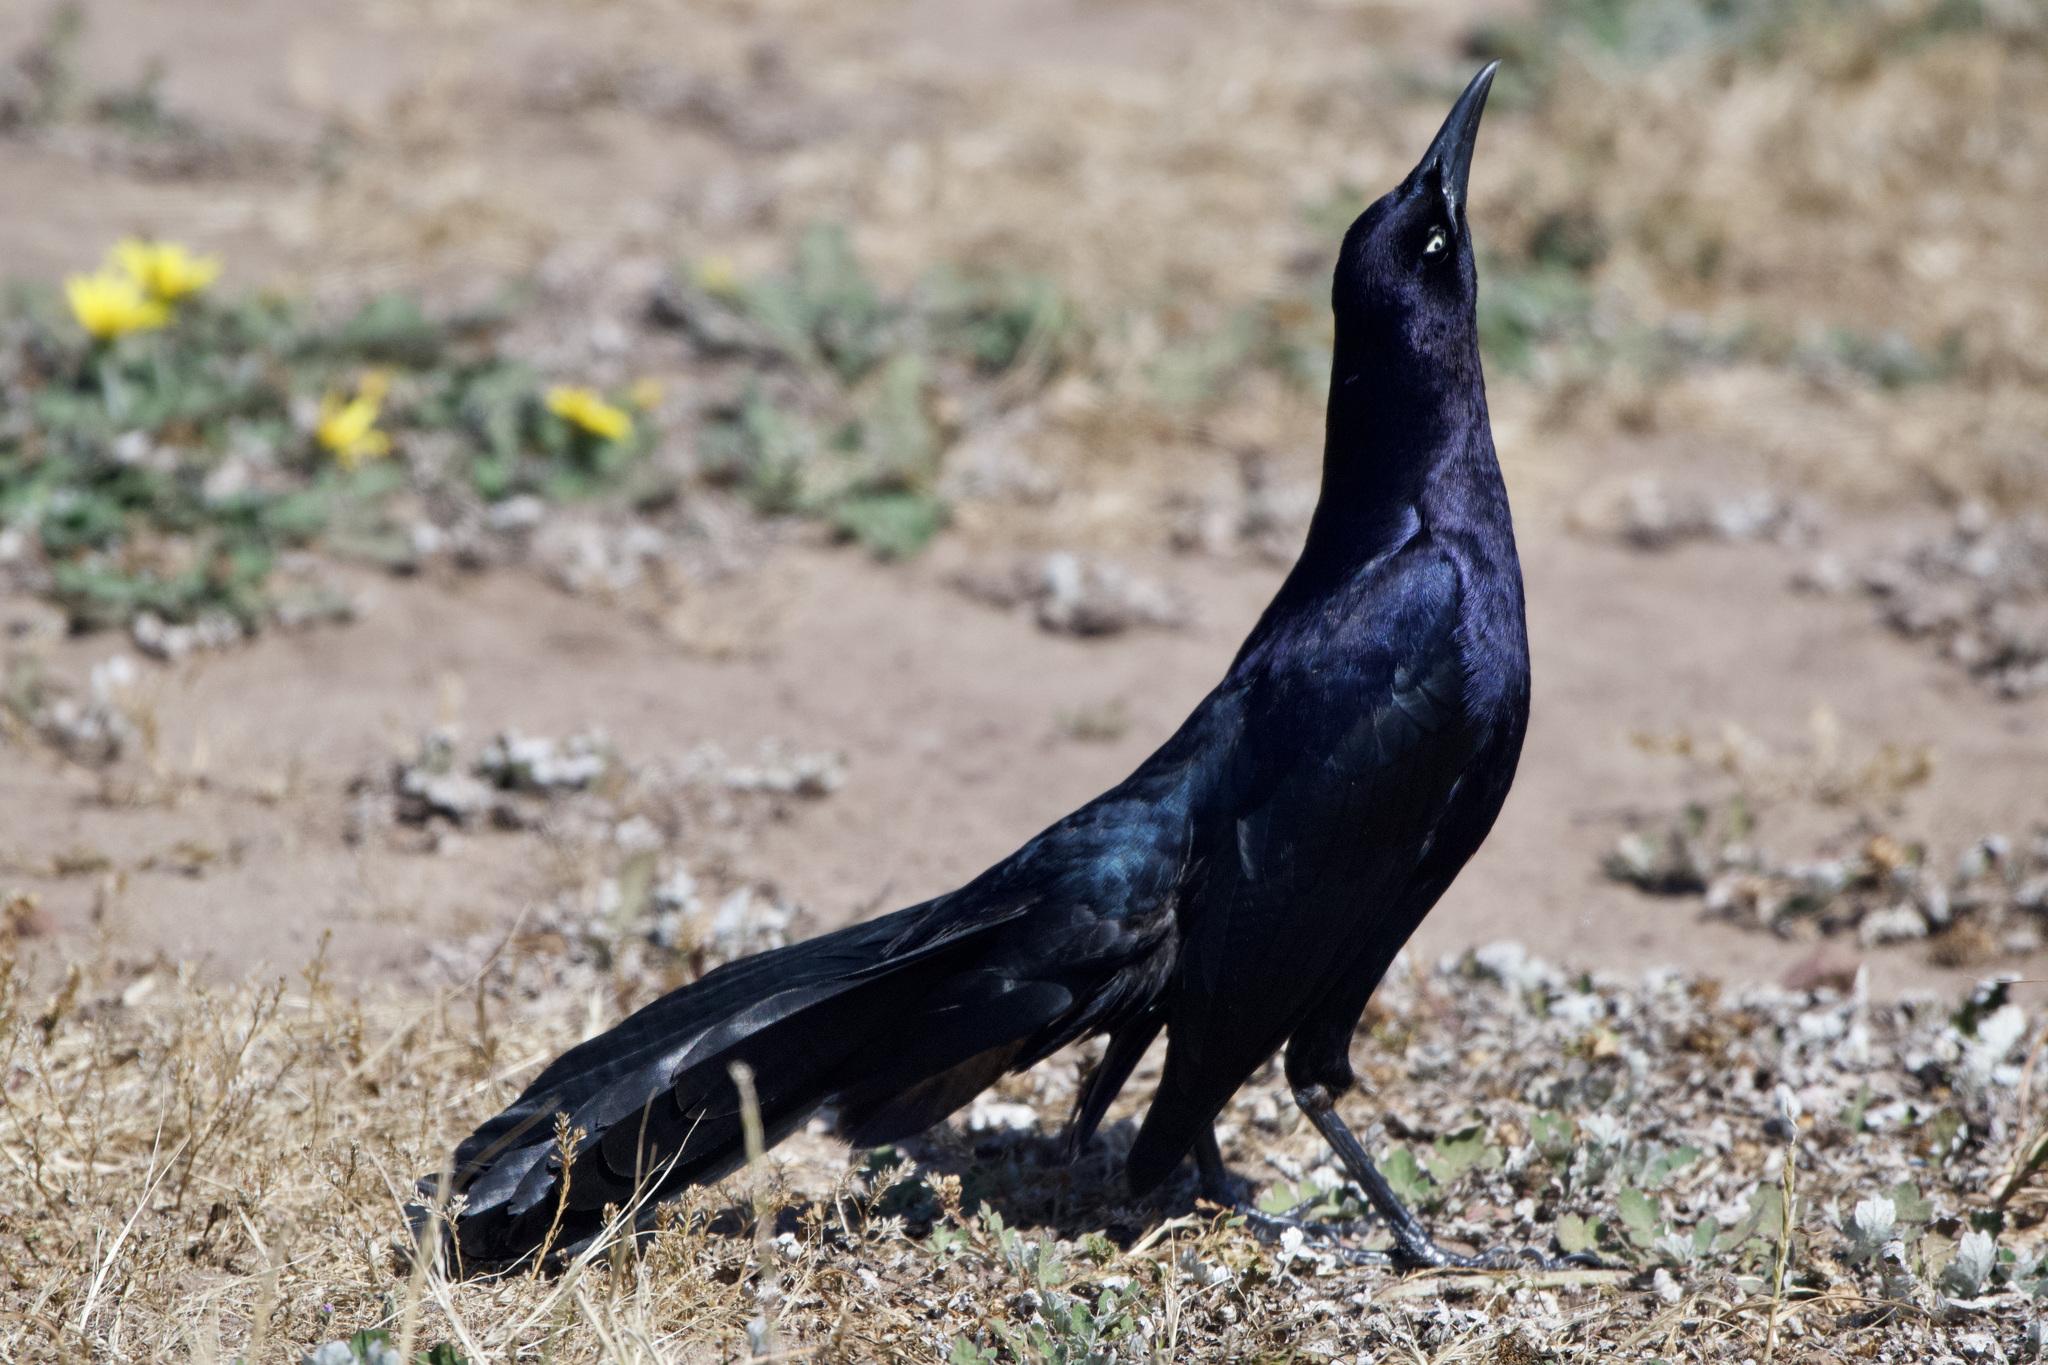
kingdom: Animalia
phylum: Chordata
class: Aves
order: Passeriformes
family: Icteridae
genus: Quiscalus
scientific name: Quiscalus mexicanus
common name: Great-tailed grackle
